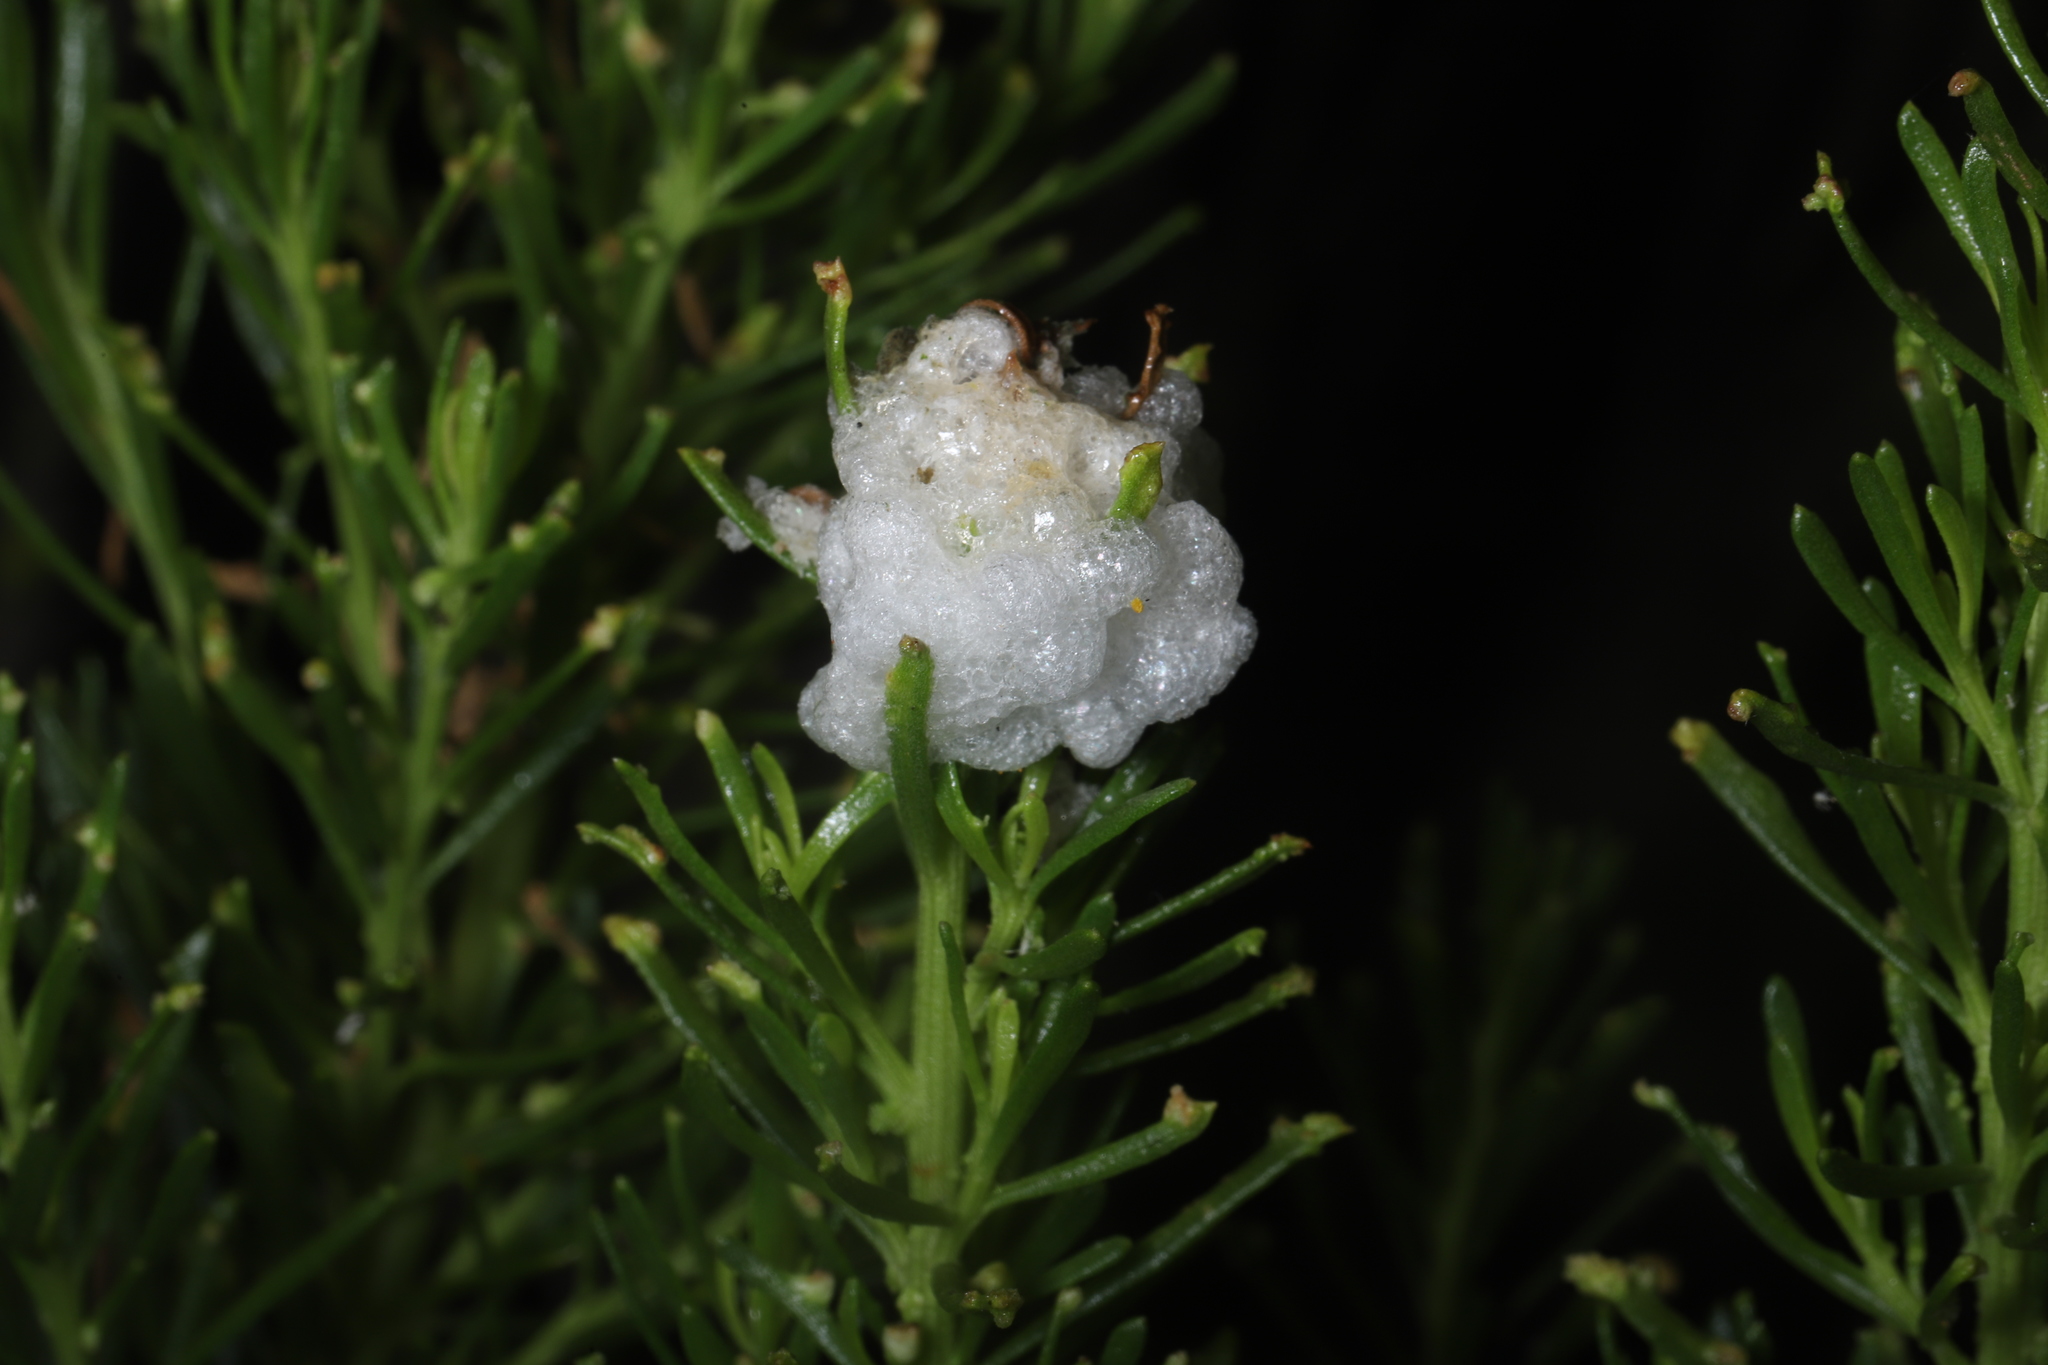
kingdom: Animalia
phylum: Arthropoda
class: Insecta
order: Diptera
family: Tephritidae
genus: Rachiptera
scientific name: Rachiptera limbata
